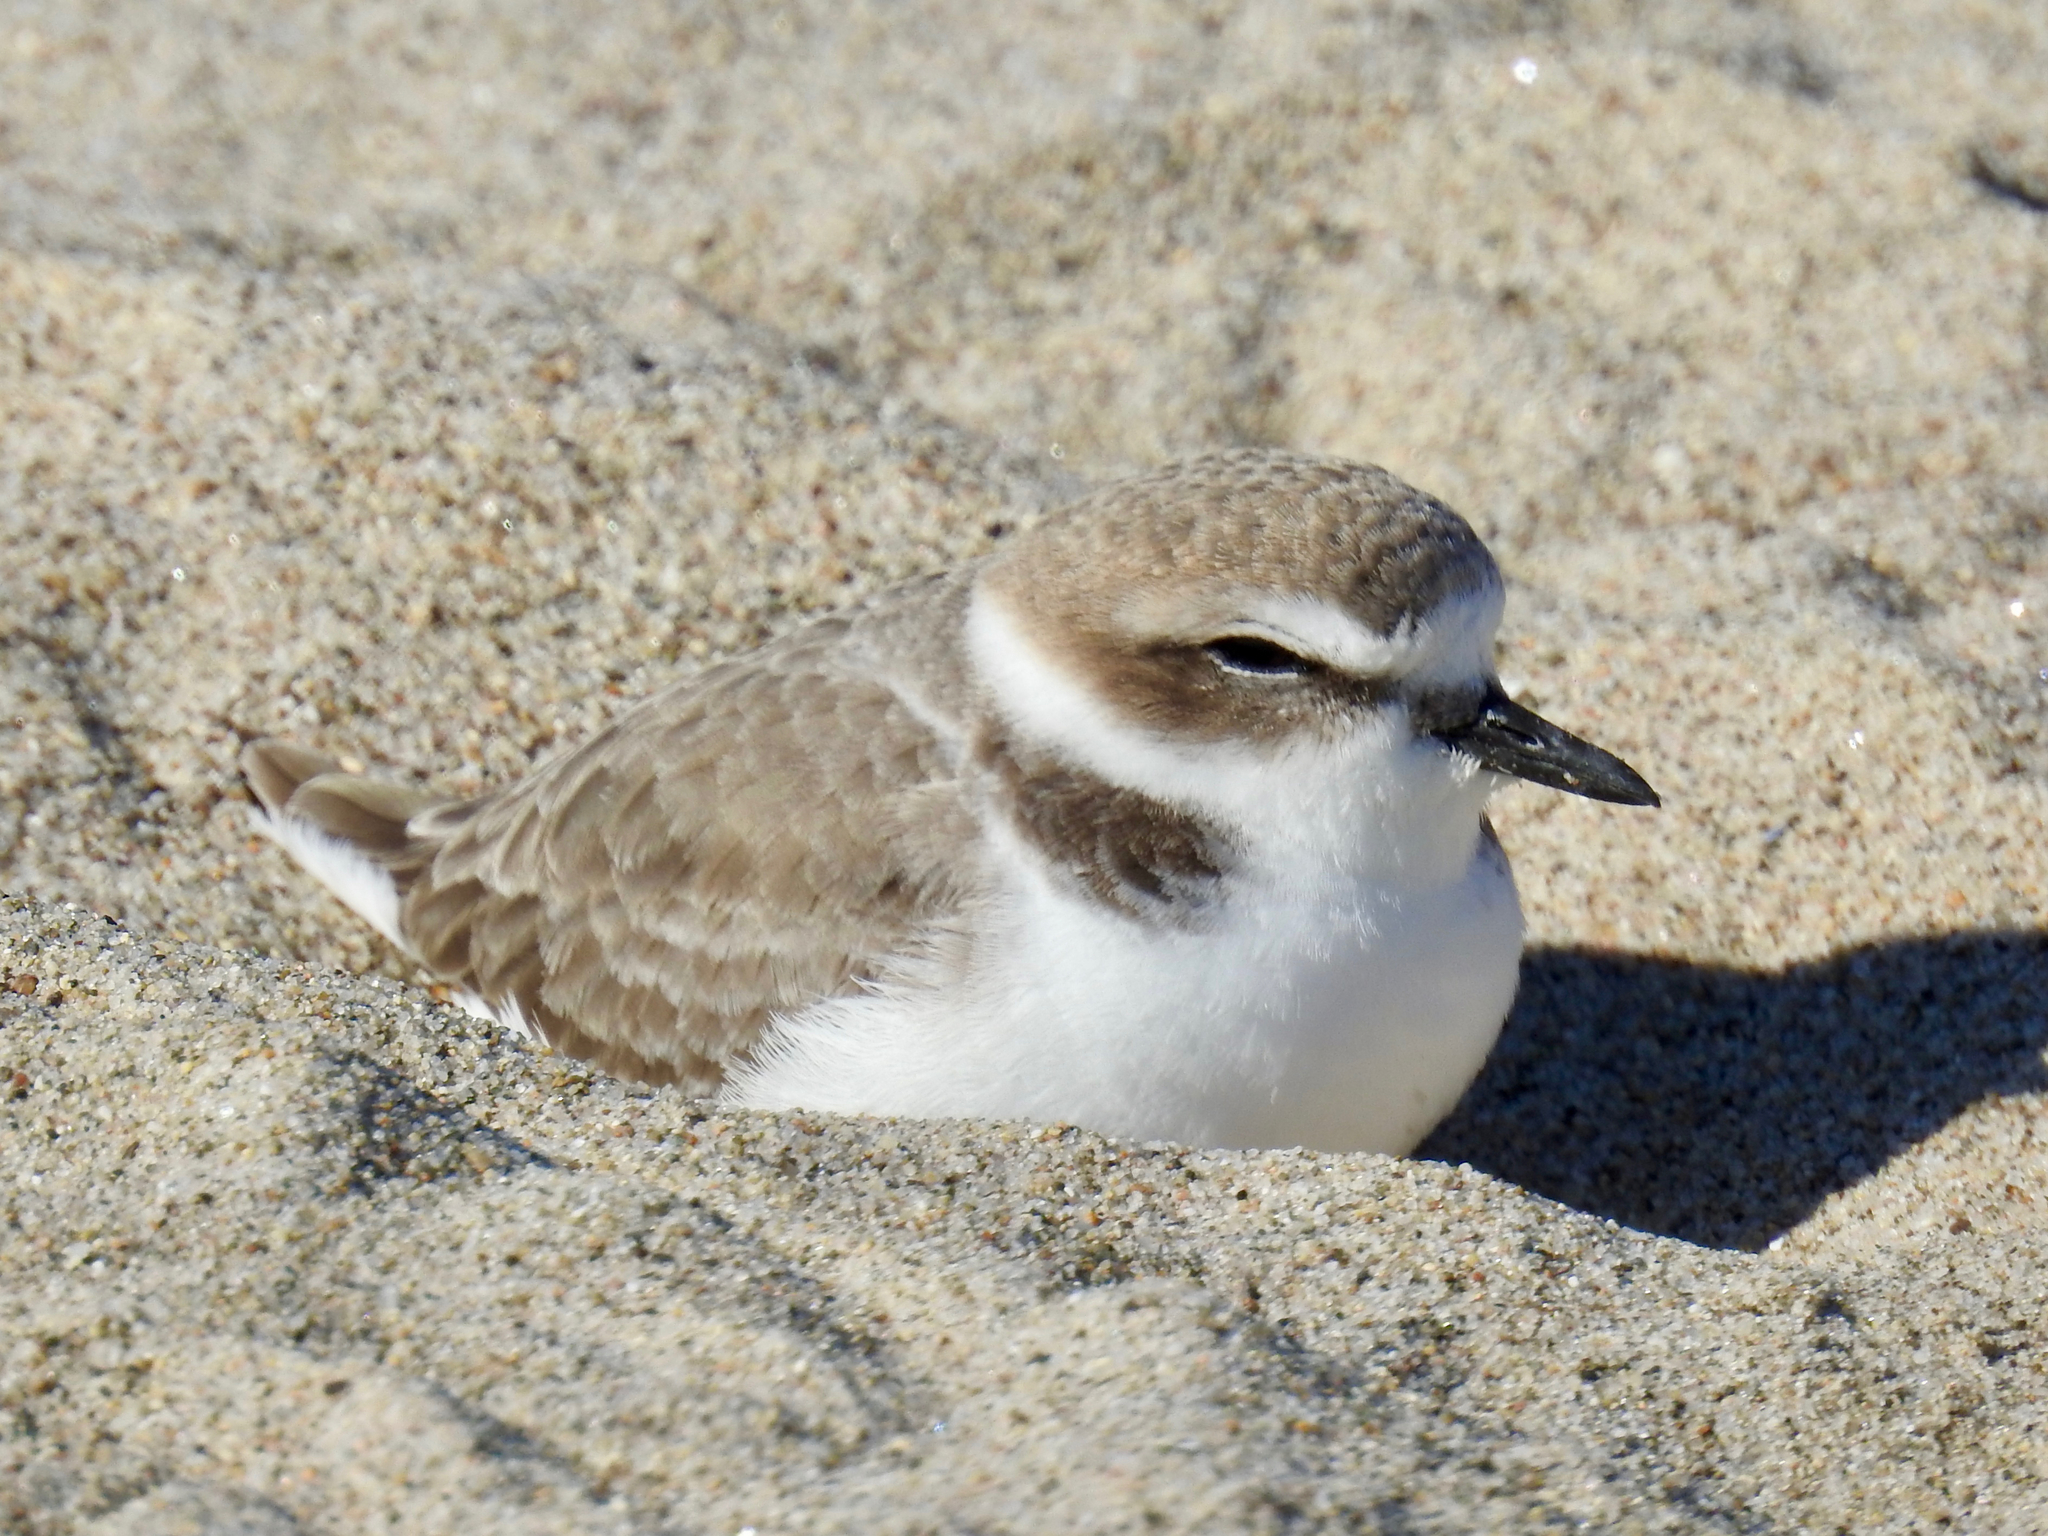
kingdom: Animalia
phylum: Chordata
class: Aves
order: Charadriiformes
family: Charadriidae
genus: Anarhynchus
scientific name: Anarhynchus
